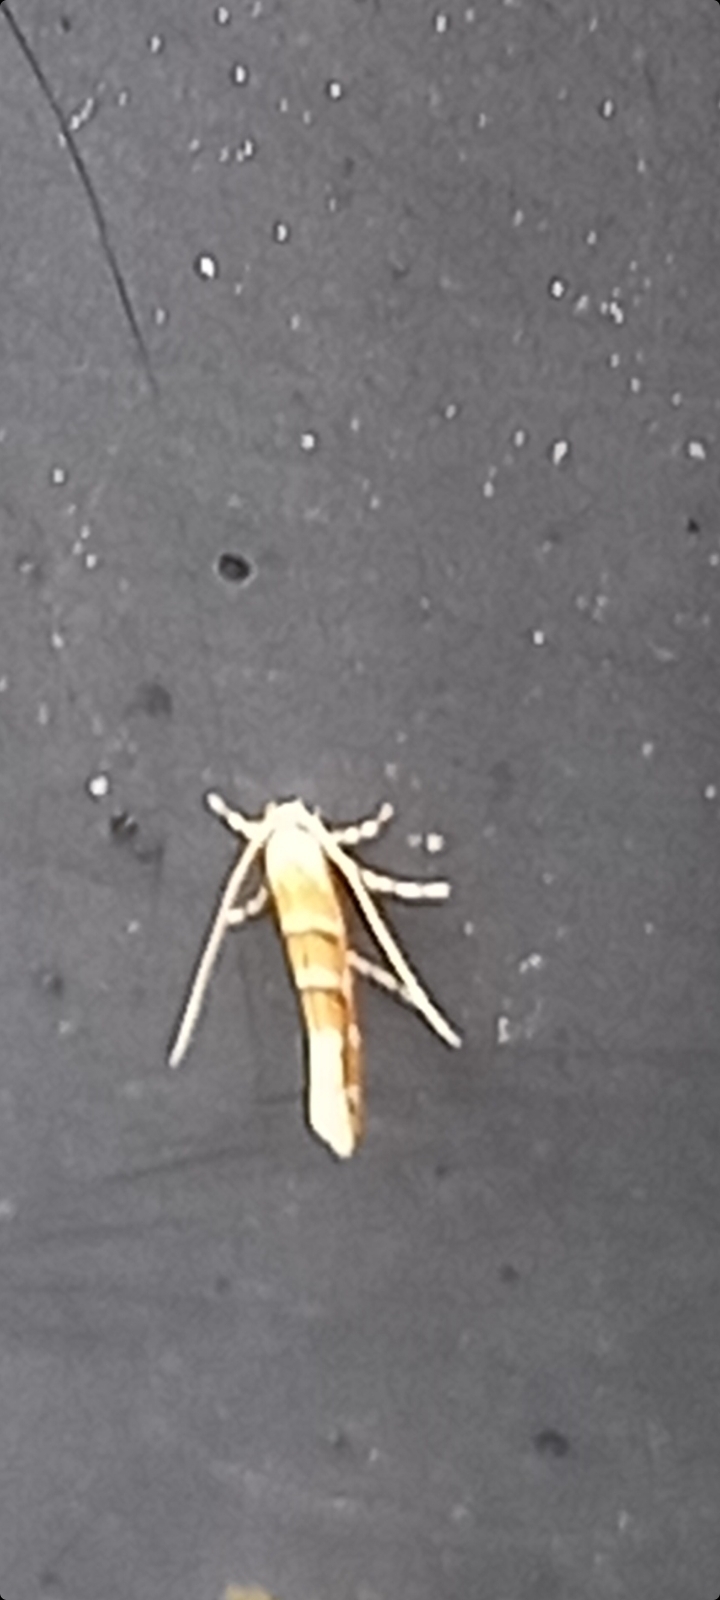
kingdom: Animalia
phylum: Arthropoda
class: Insecta
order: Lepidoptera
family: Gracillariidae
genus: Cameraria
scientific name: Cameraria ohridella
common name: Horse-chestnut leaf-miner
